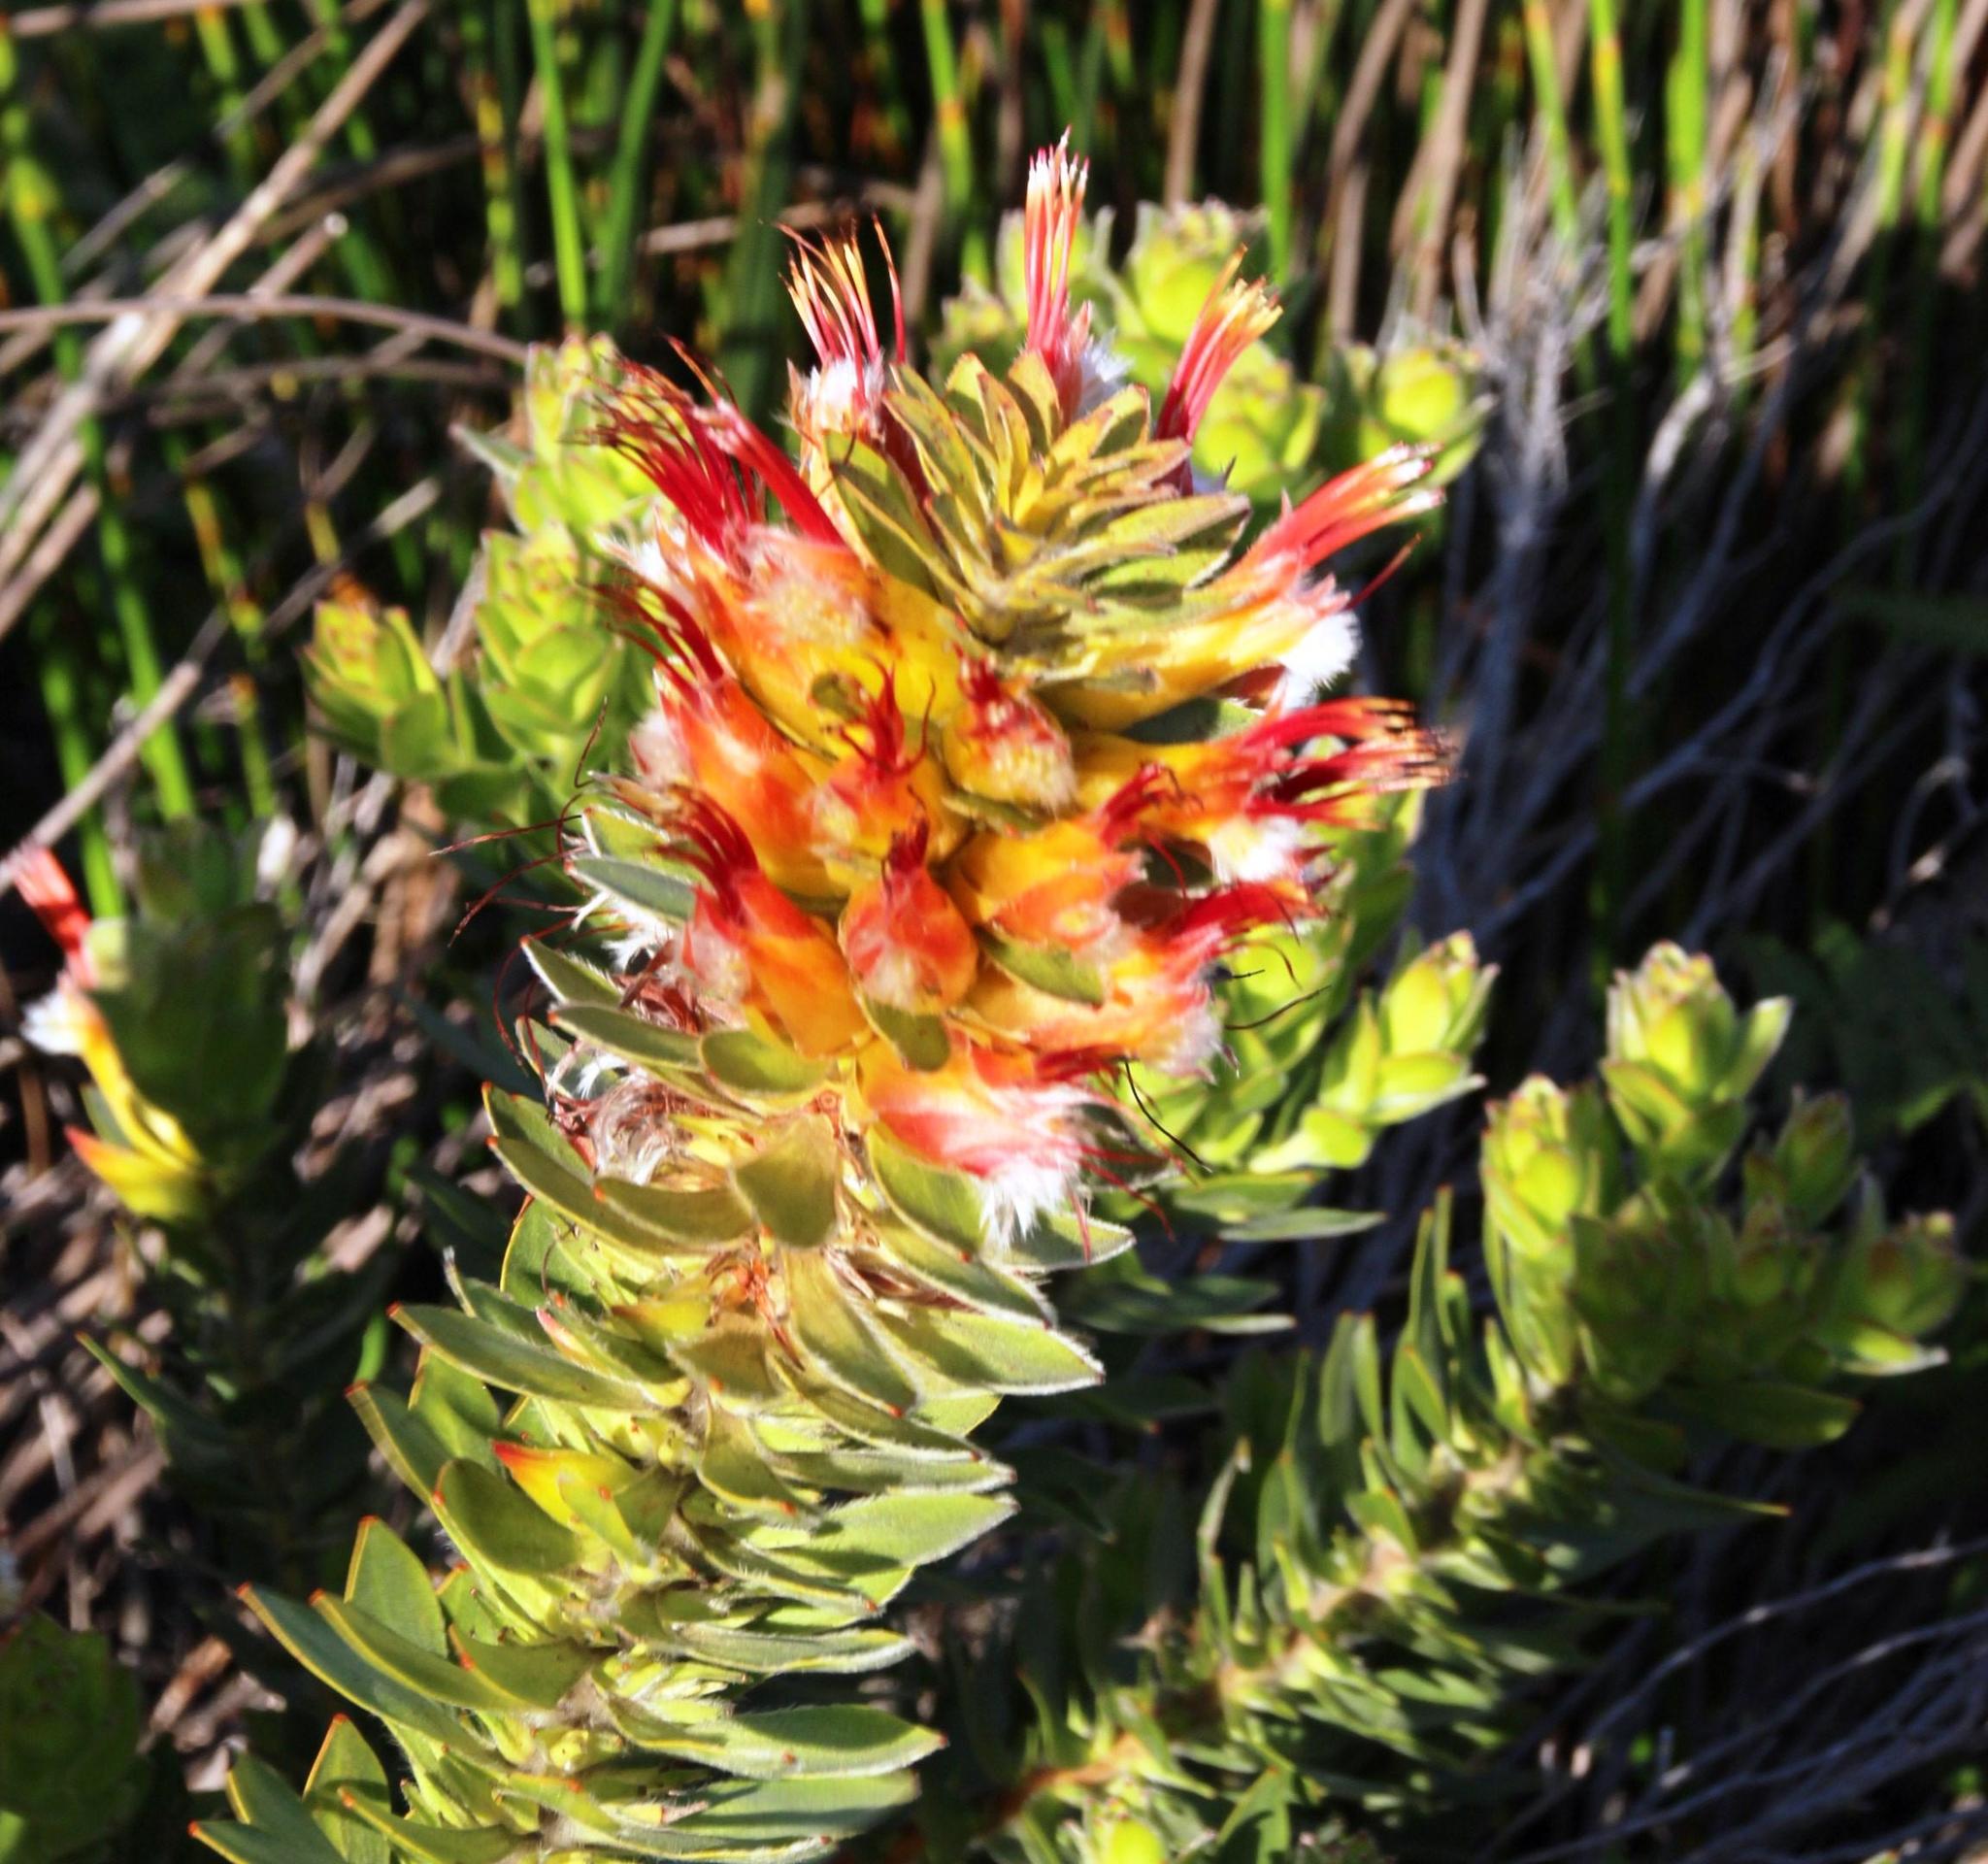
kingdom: Plantae
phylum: Tracheophyta
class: Magnoliopsida
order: Proteales
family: Proteaceae
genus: Mimetes
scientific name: Mimetes hirtus
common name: Marsh pagoda
